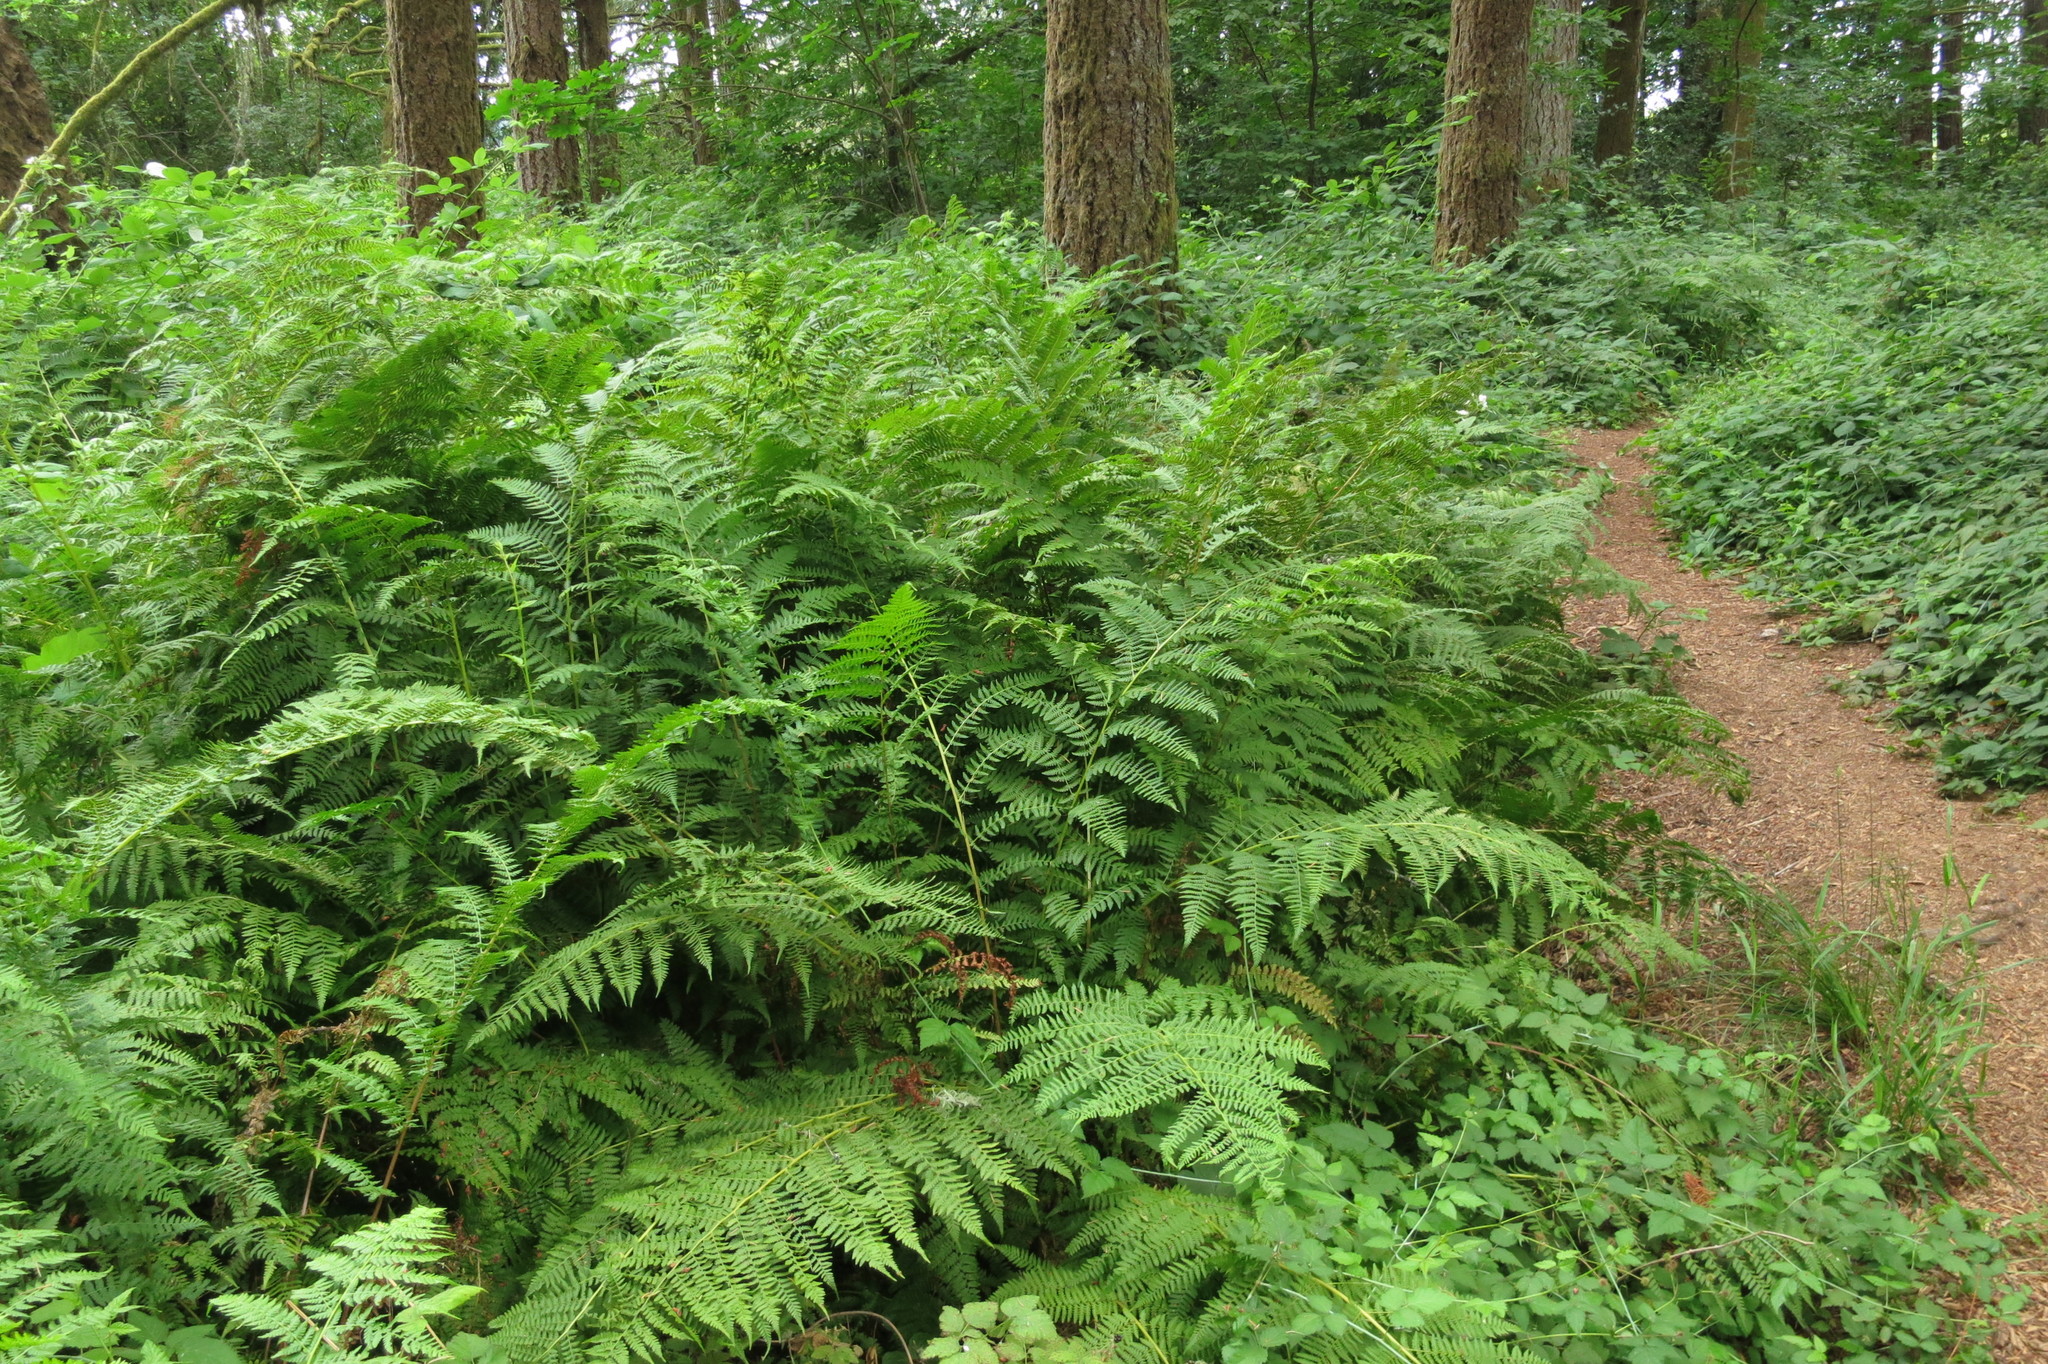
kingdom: Plantae
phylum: Tracheophyta
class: Polypodiopsida
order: Polypodiales
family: Athyriaceae
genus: Athyrium
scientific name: Athyrium cyclosorum
